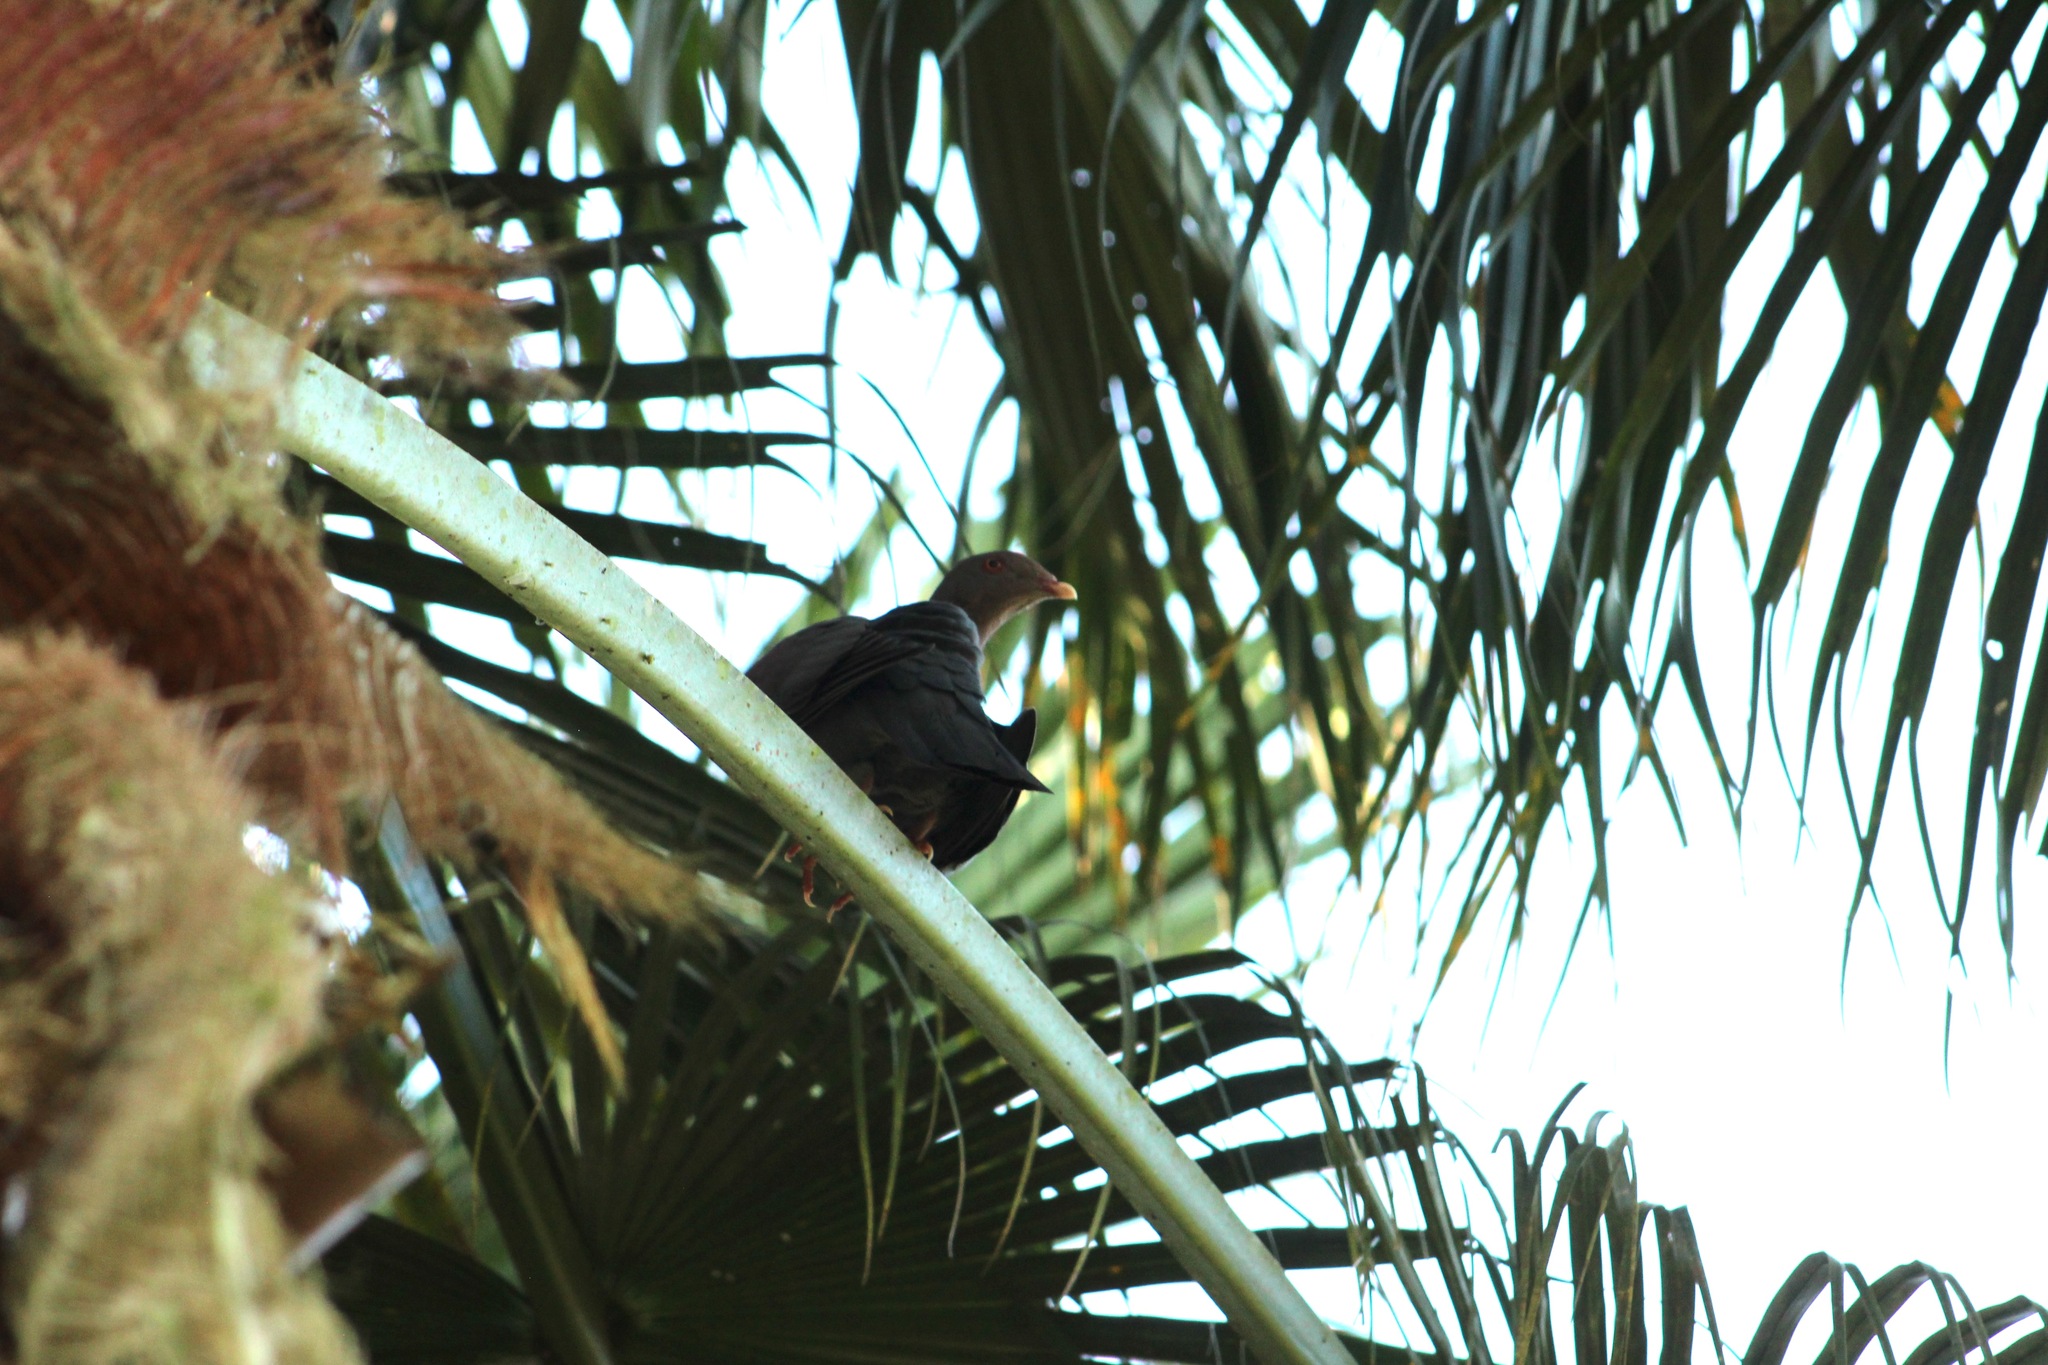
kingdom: Animalia
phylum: Chordata
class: Aves
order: Columbiformes
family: Columbidae
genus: Patagioenas
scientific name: Patagioenas flavirostris
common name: Red-billed pigeon
